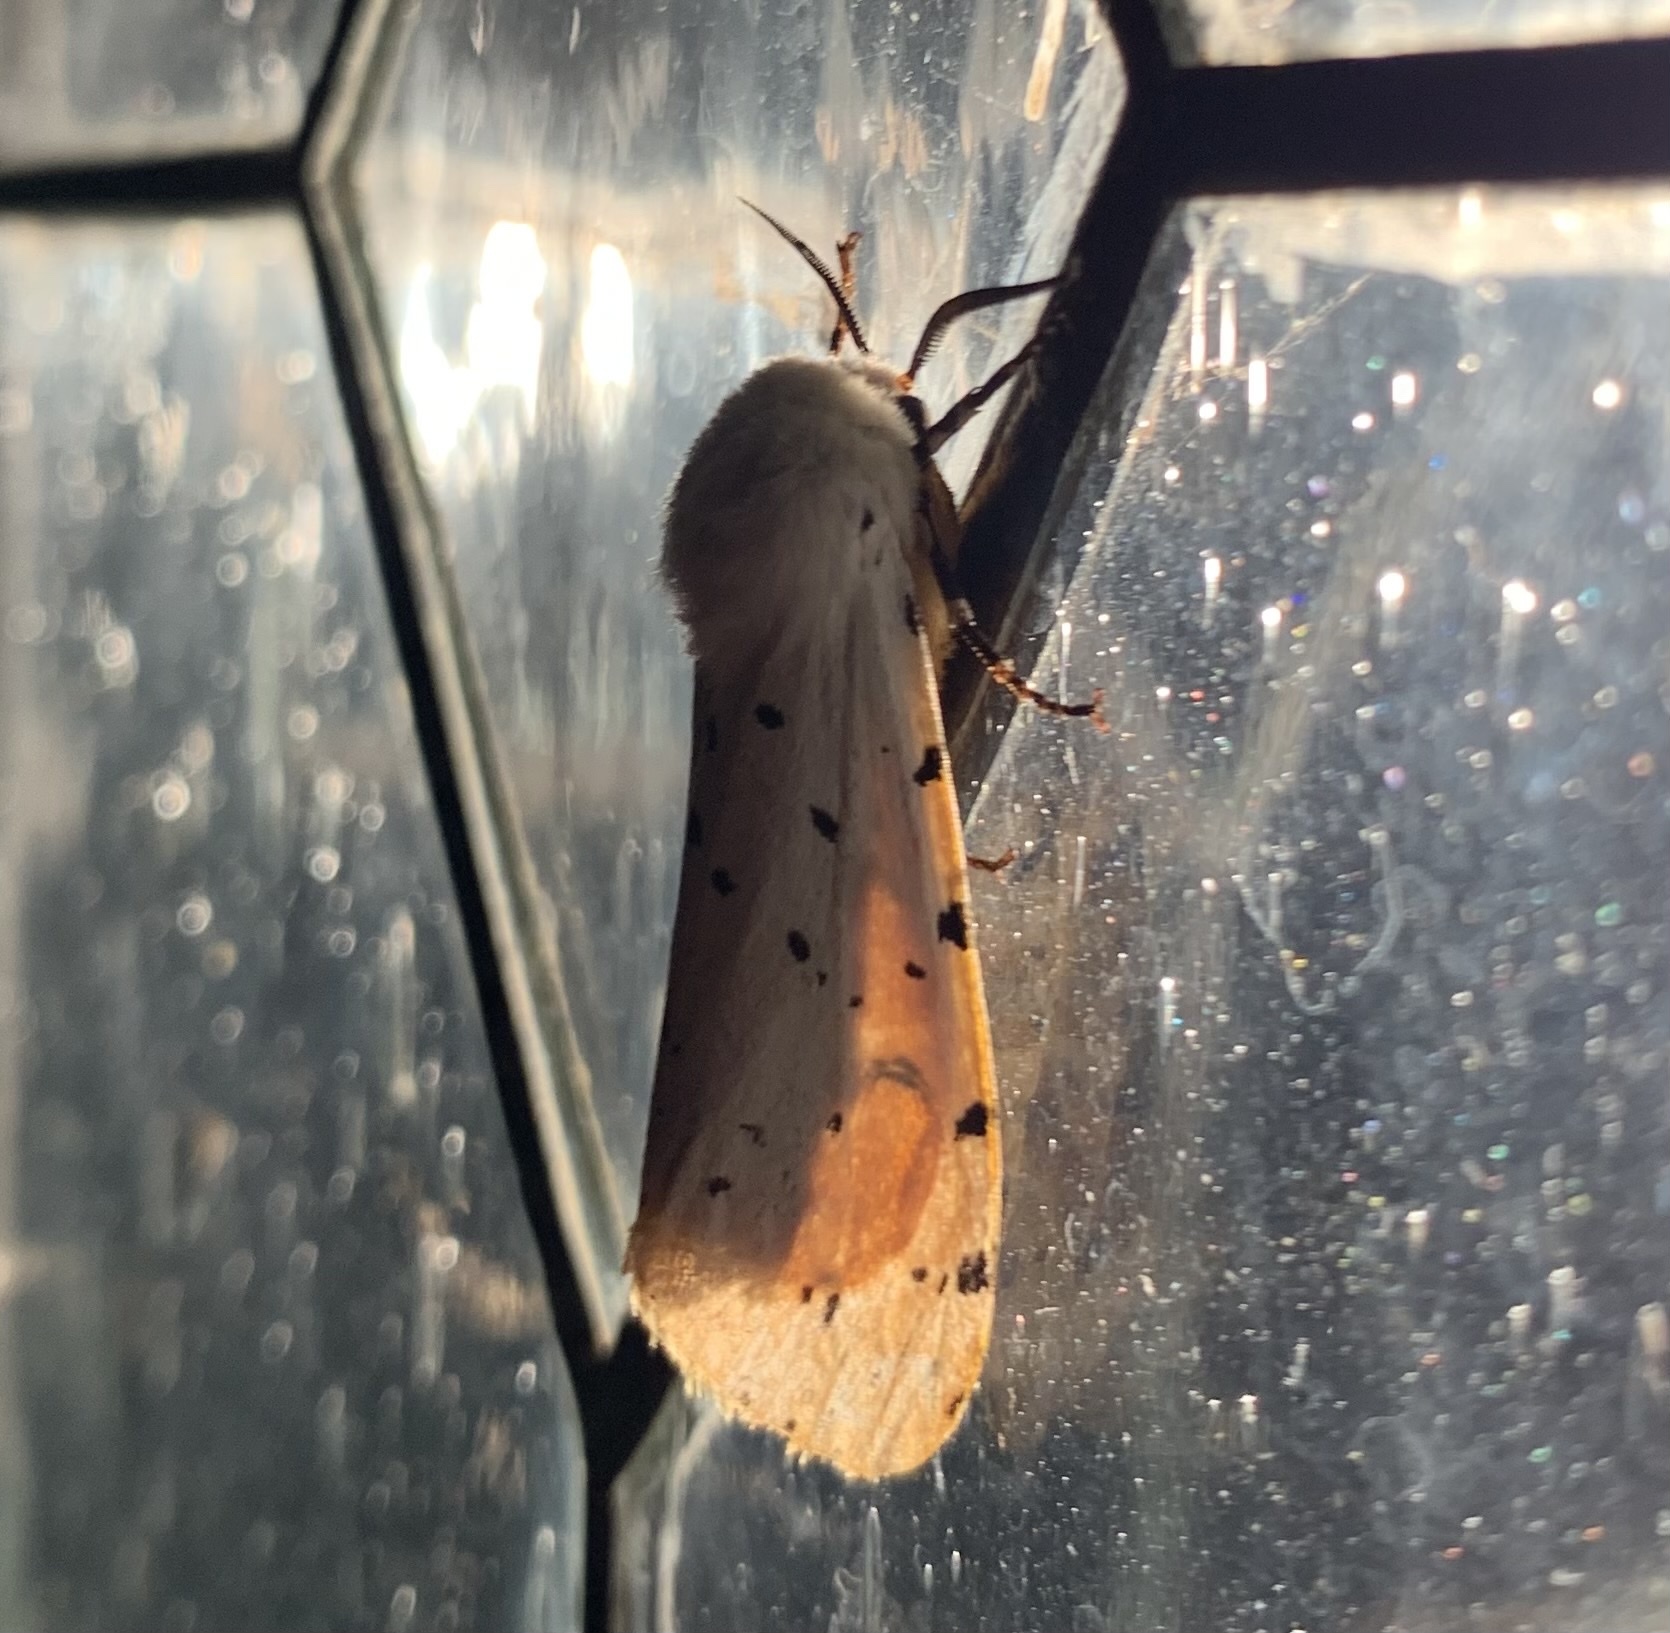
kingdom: Animalia
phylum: Arthropoda
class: Insecta
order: Lepidoptera
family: Erebidae
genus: Estigmene
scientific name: Estigmene acrea
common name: Salt marsh moth
